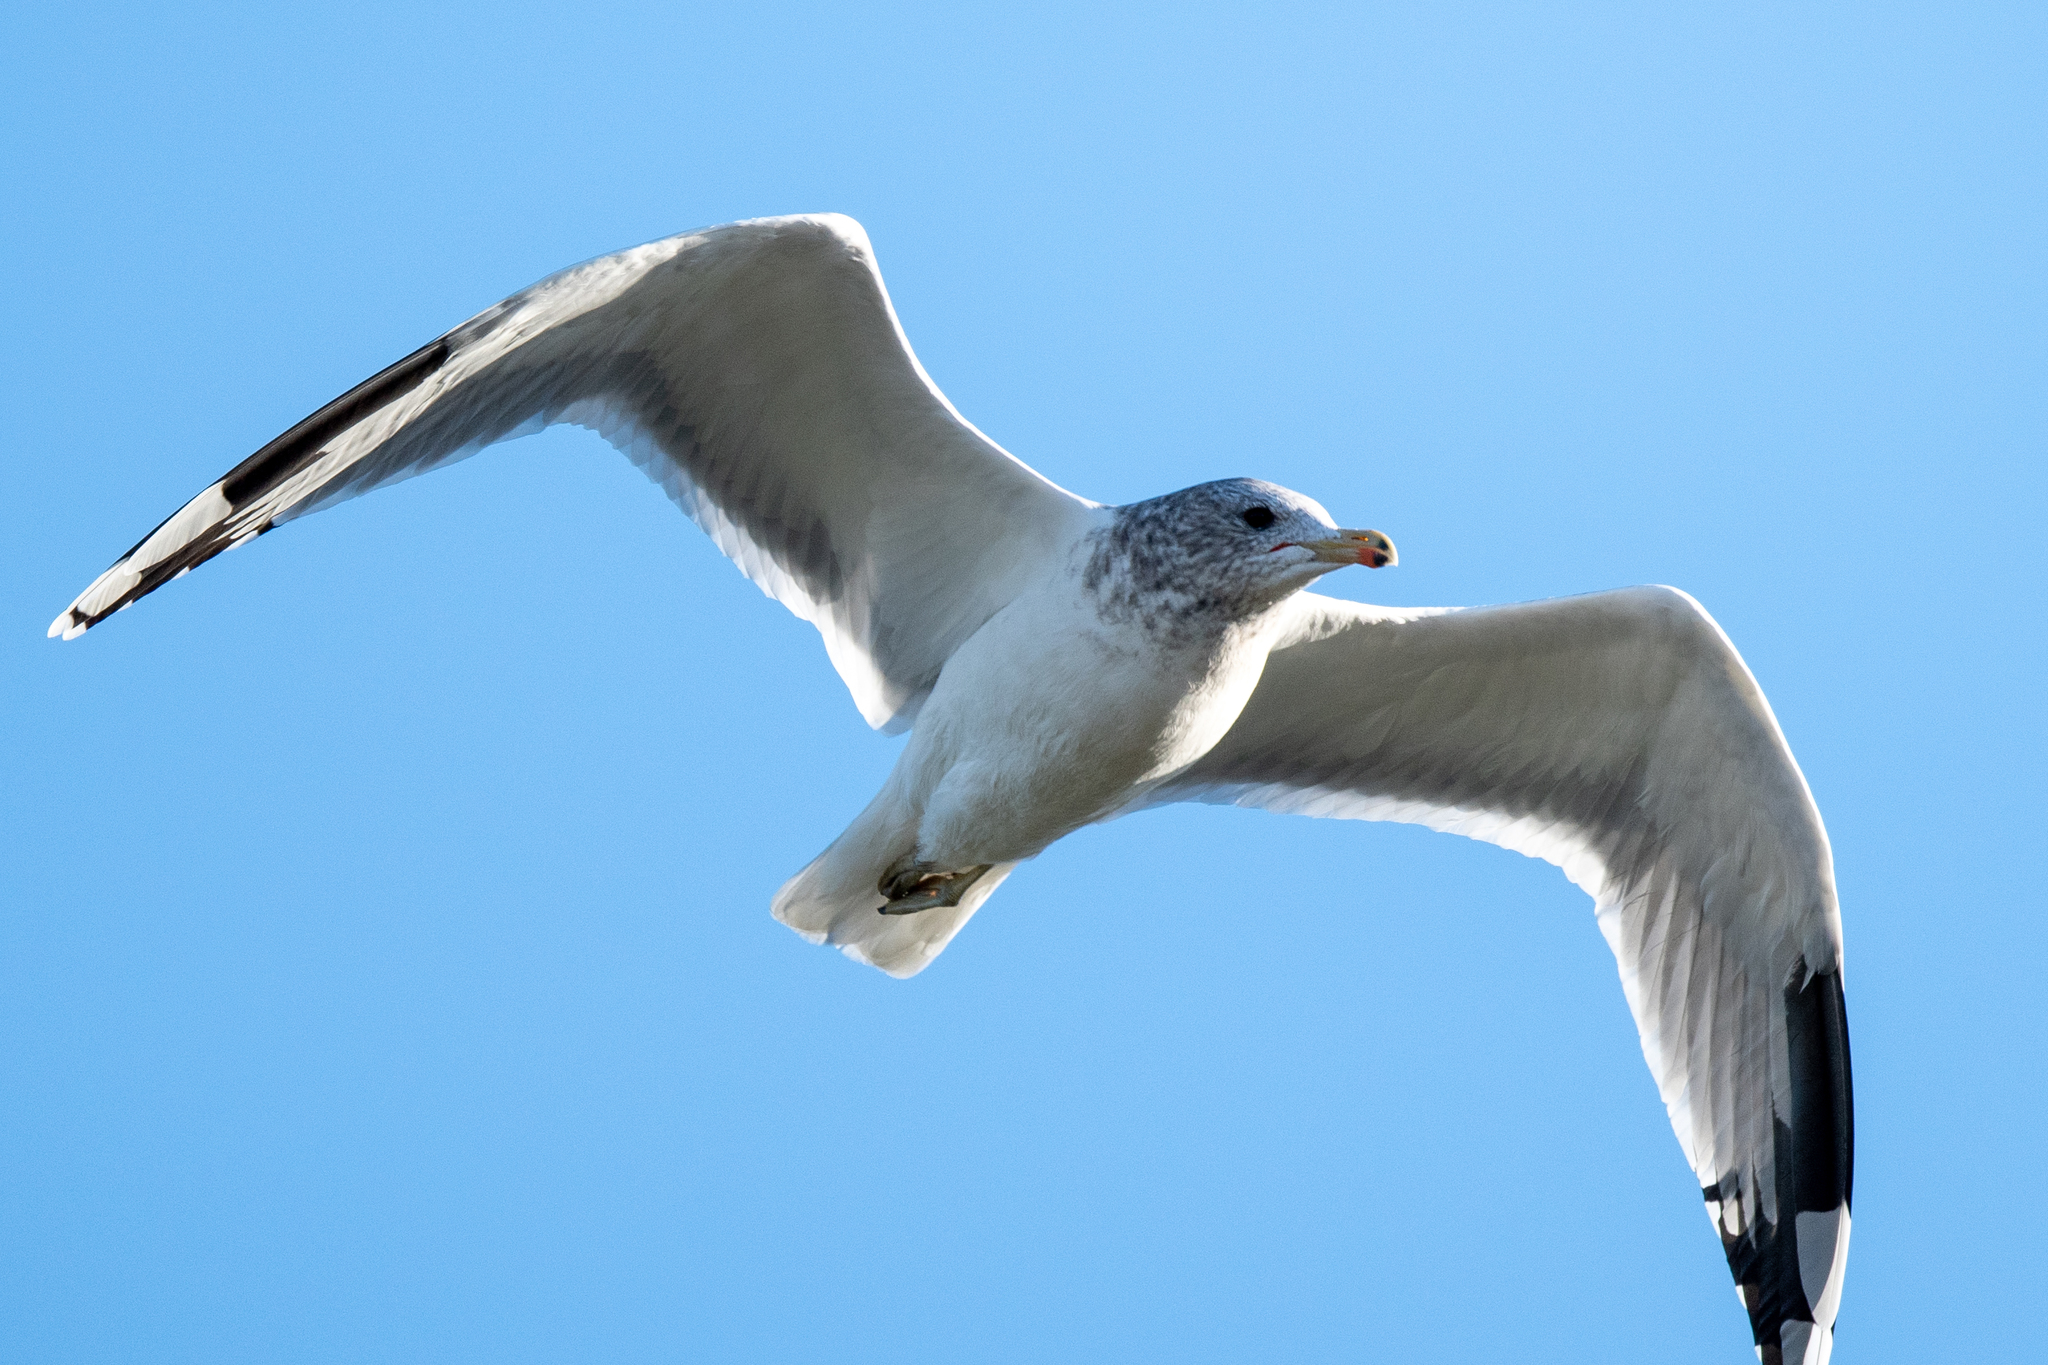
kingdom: Animalia
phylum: Chordata
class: Aves
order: Charadriiformes
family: Laridae
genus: Larus
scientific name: Larus californicus
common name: California gull
